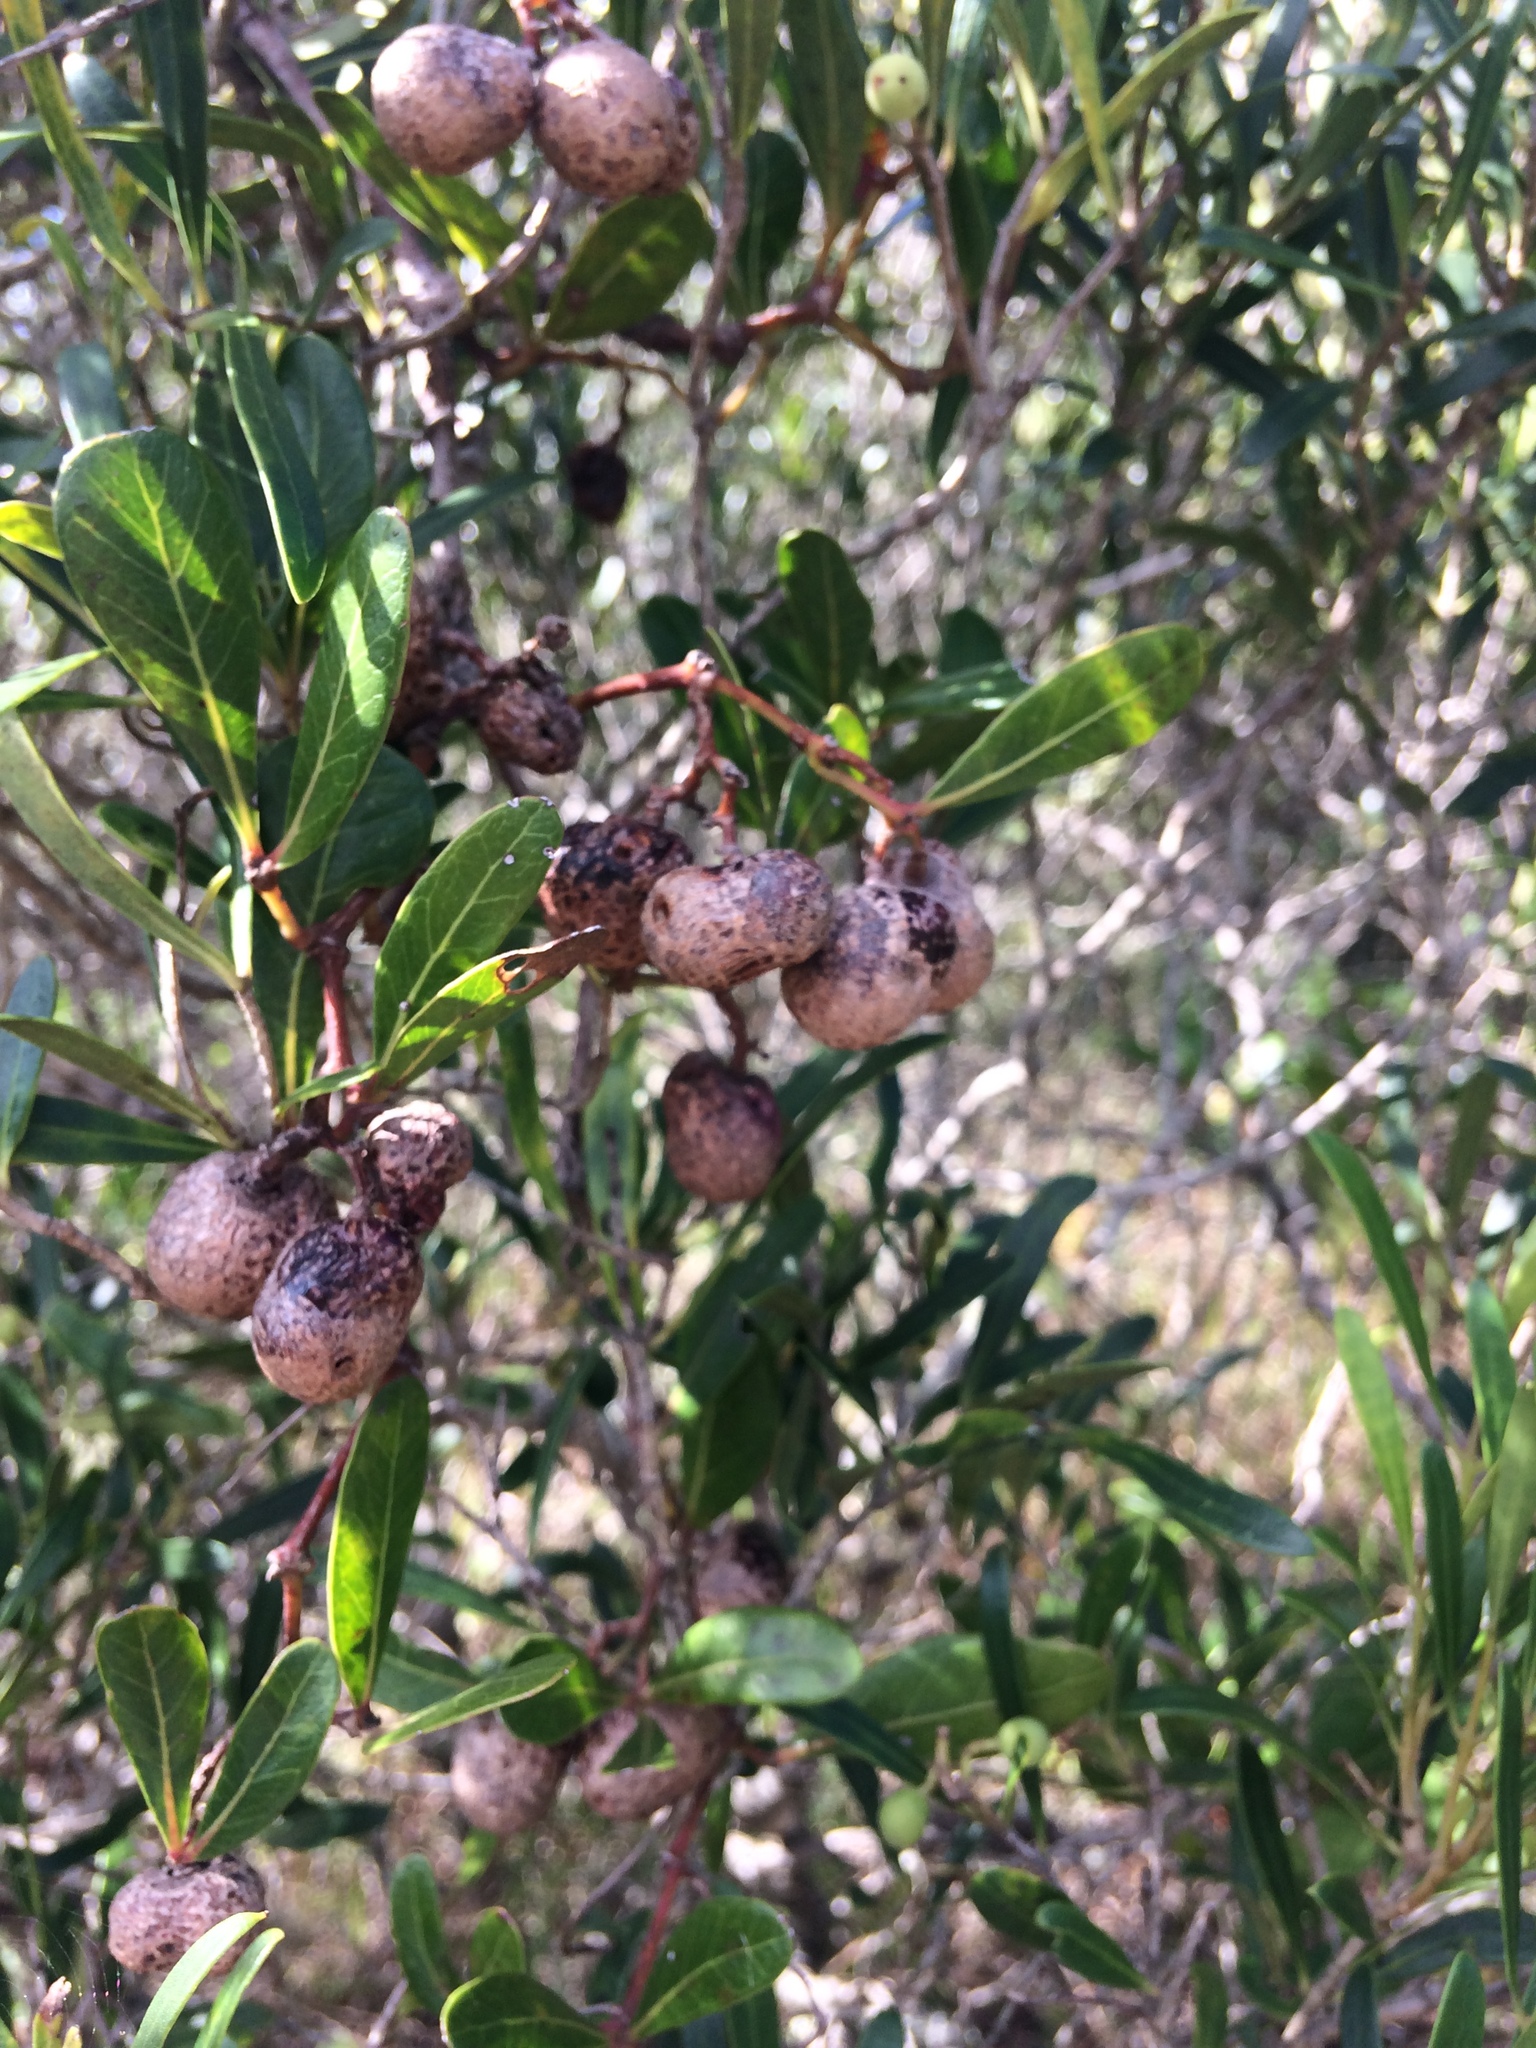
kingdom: Plantae
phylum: Tracheophyta
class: Magnoliopsida
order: Vitales
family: Vitaceae
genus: Rhoicissus
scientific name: Rhoicissus digitata
